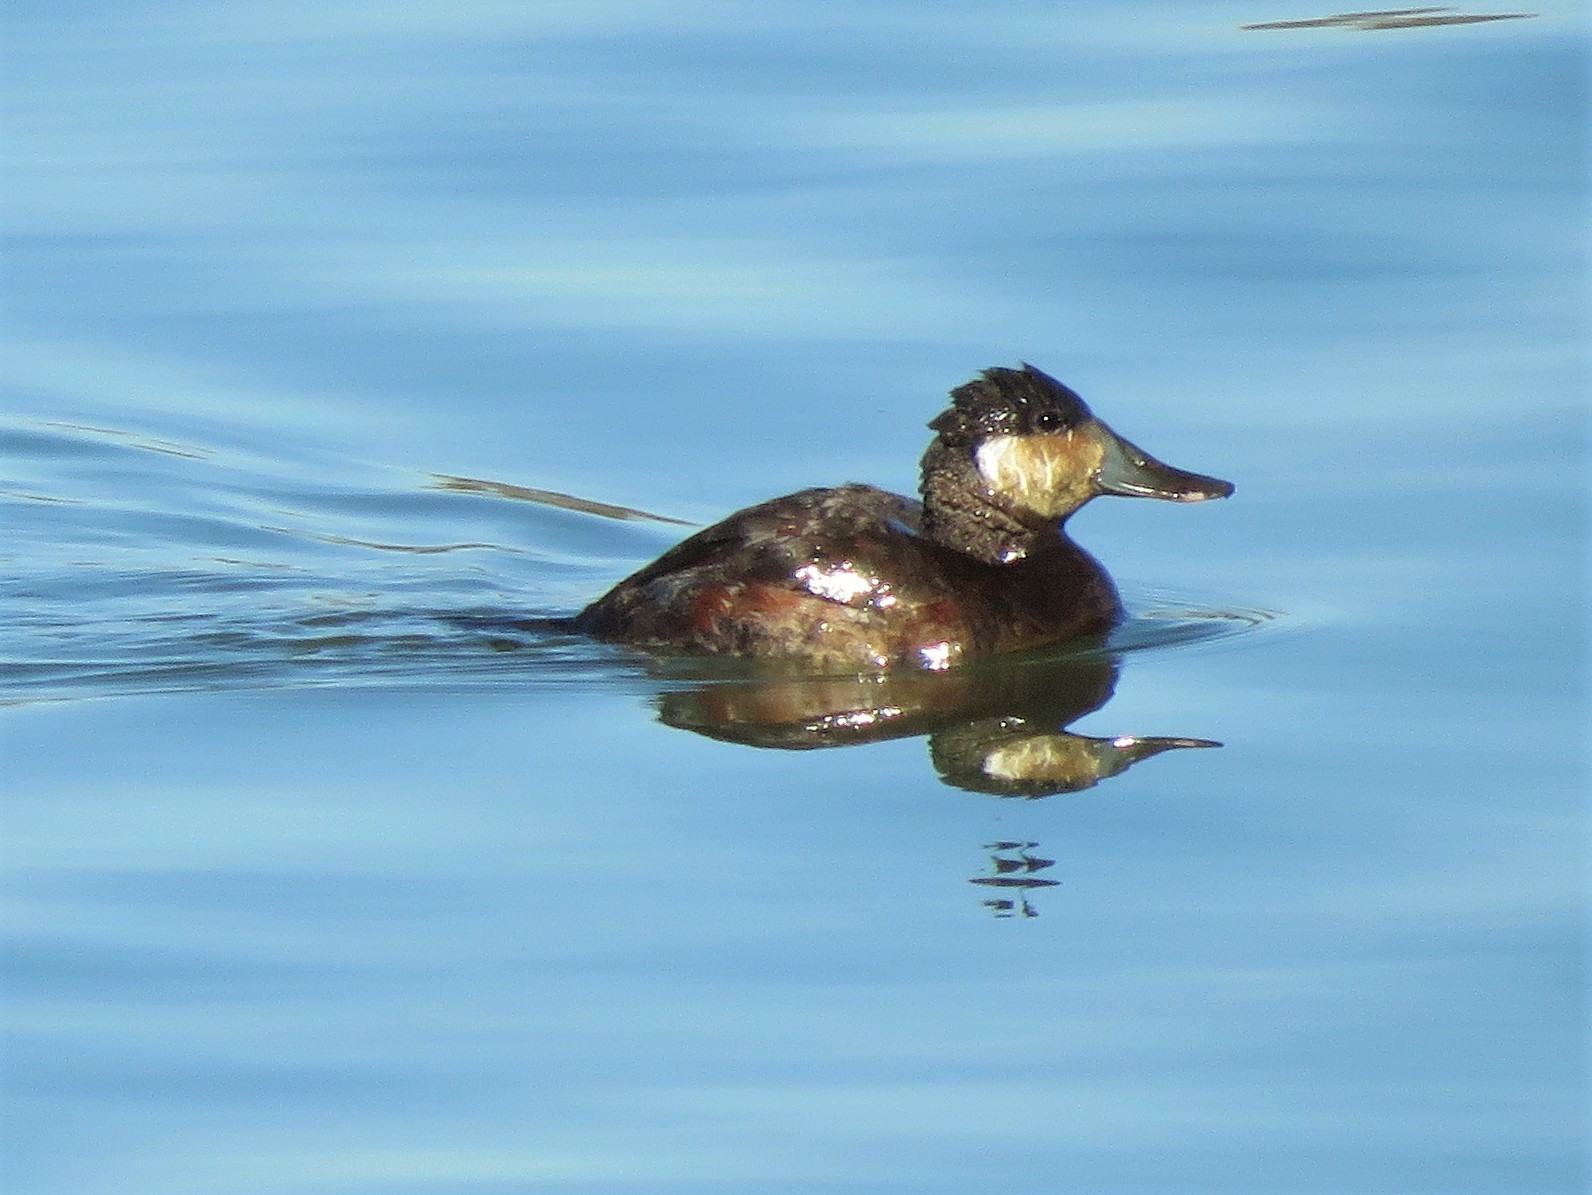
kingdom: Animalia
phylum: Chordata
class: Aves
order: Anseriformes
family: Anatidae
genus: Oxyura
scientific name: Oxyura jamaicensis
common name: Ruddy duck
